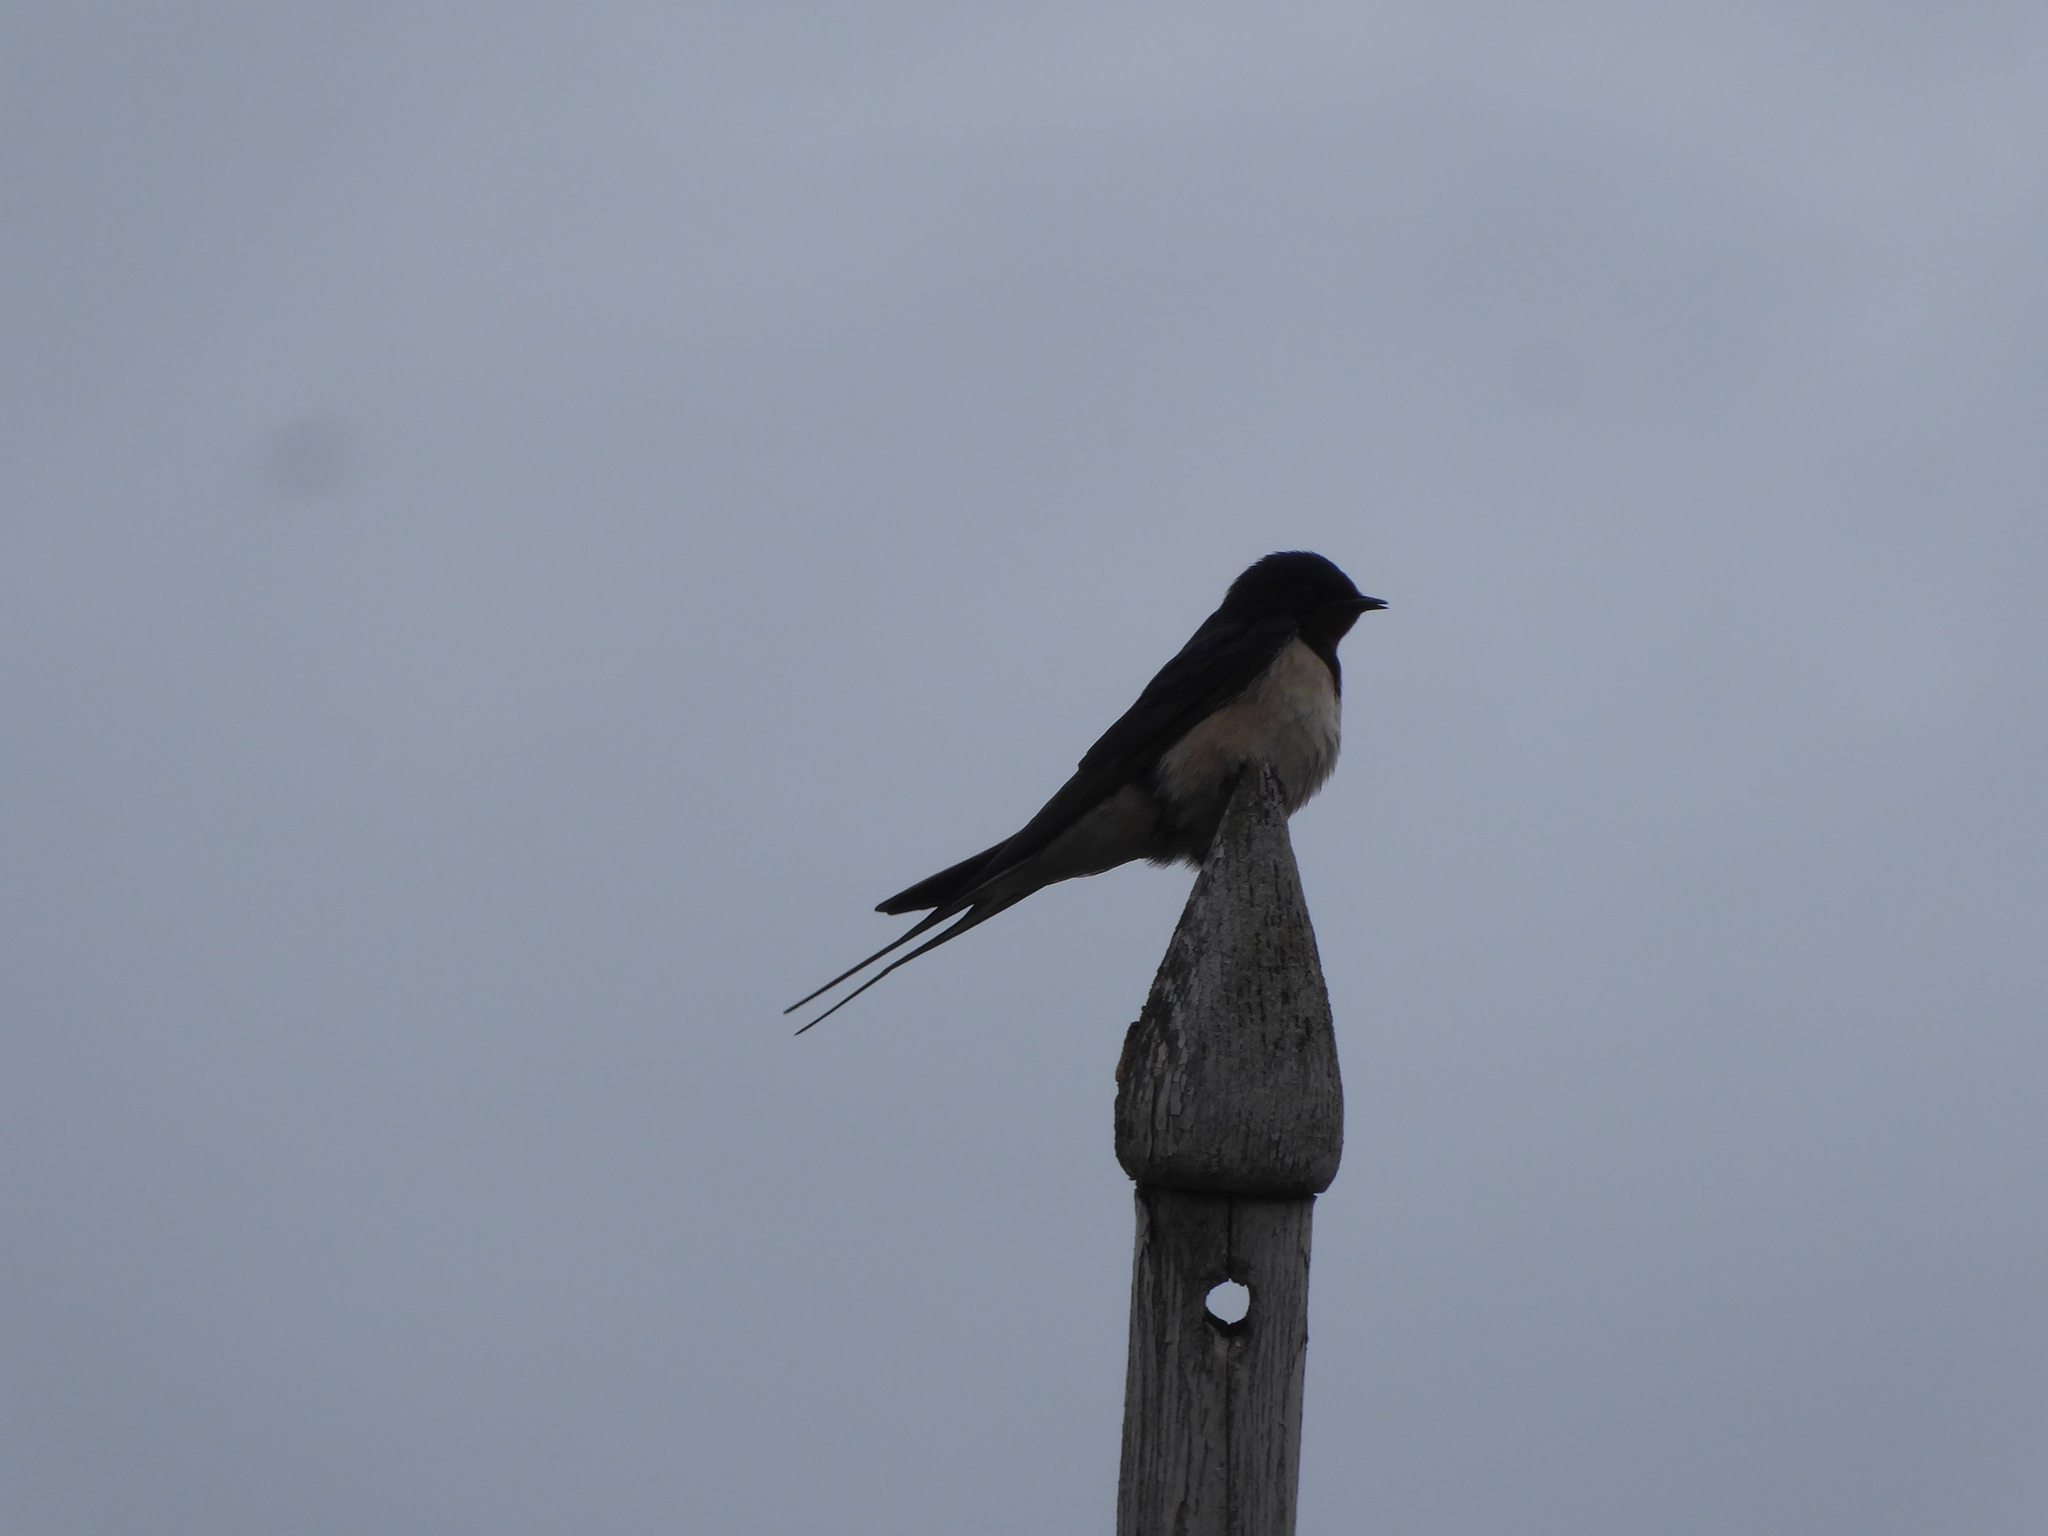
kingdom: Animalia
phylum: Chordata
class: Aves
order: Passeriformes
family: Hirundinidae
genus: Hirundo
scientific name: Hirundo rustica
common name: Barn swallow
